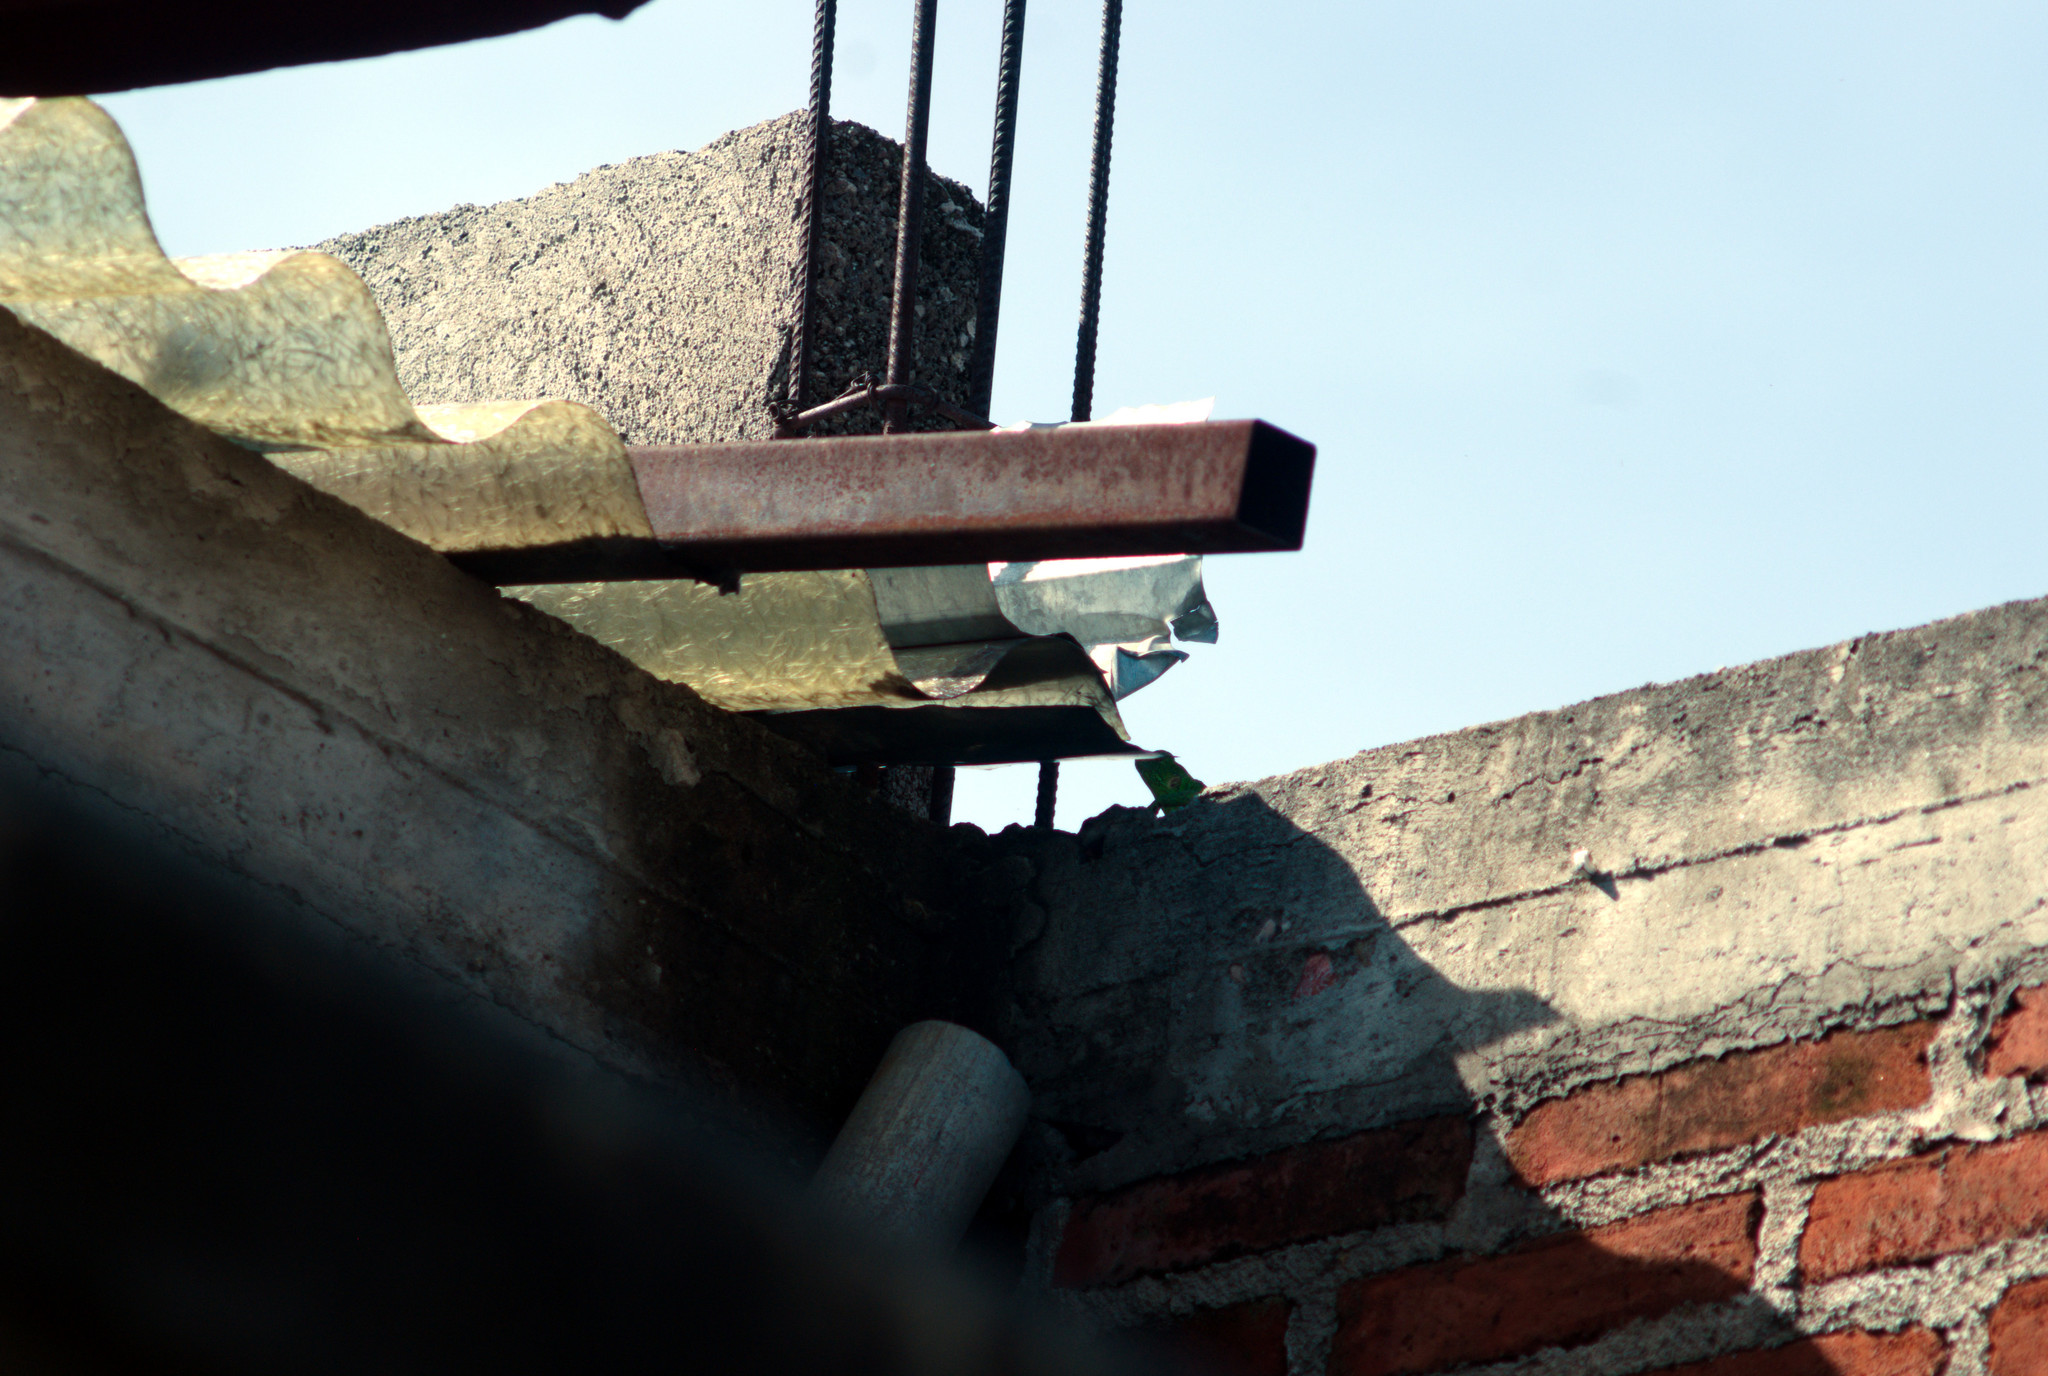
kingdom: Animalia
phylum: Chordata
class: Squamata
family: Iguanidae
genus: Iguana
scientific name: Iguana iguana
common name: Green iguana
